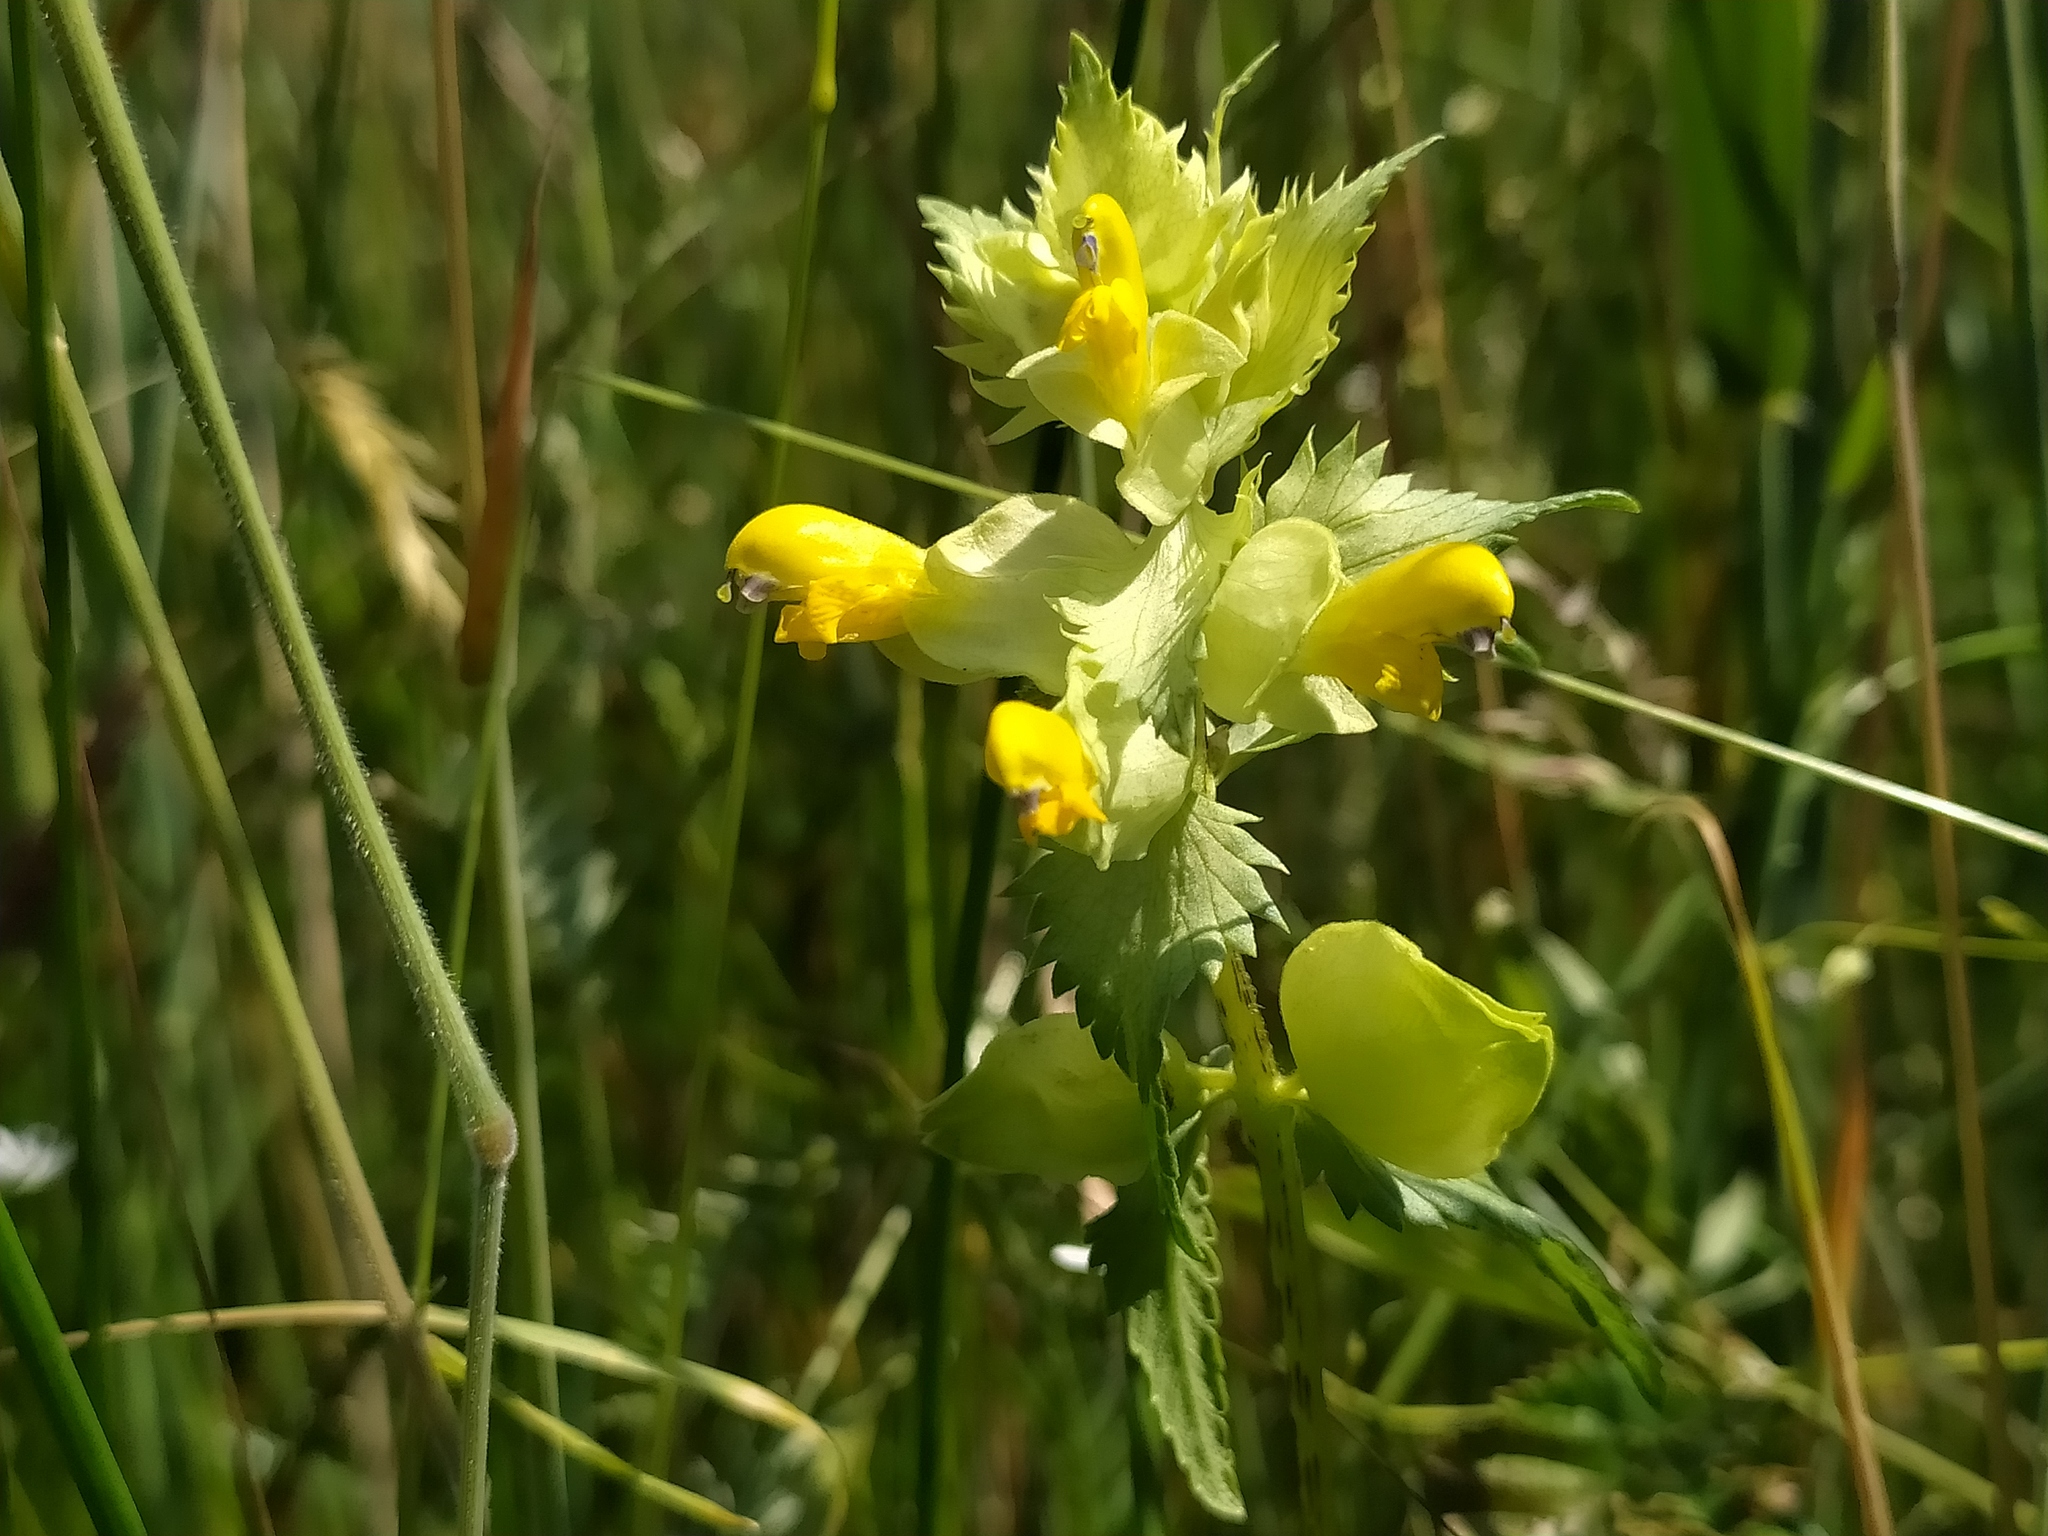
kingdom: Plantae
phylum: Tracheophyta
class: Magnoliopsida
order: Lamiales
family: Orobanchaceae
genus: Rhinanthus
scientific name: Rhinanthus serotinus
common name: Late-flowering yellow rattle
